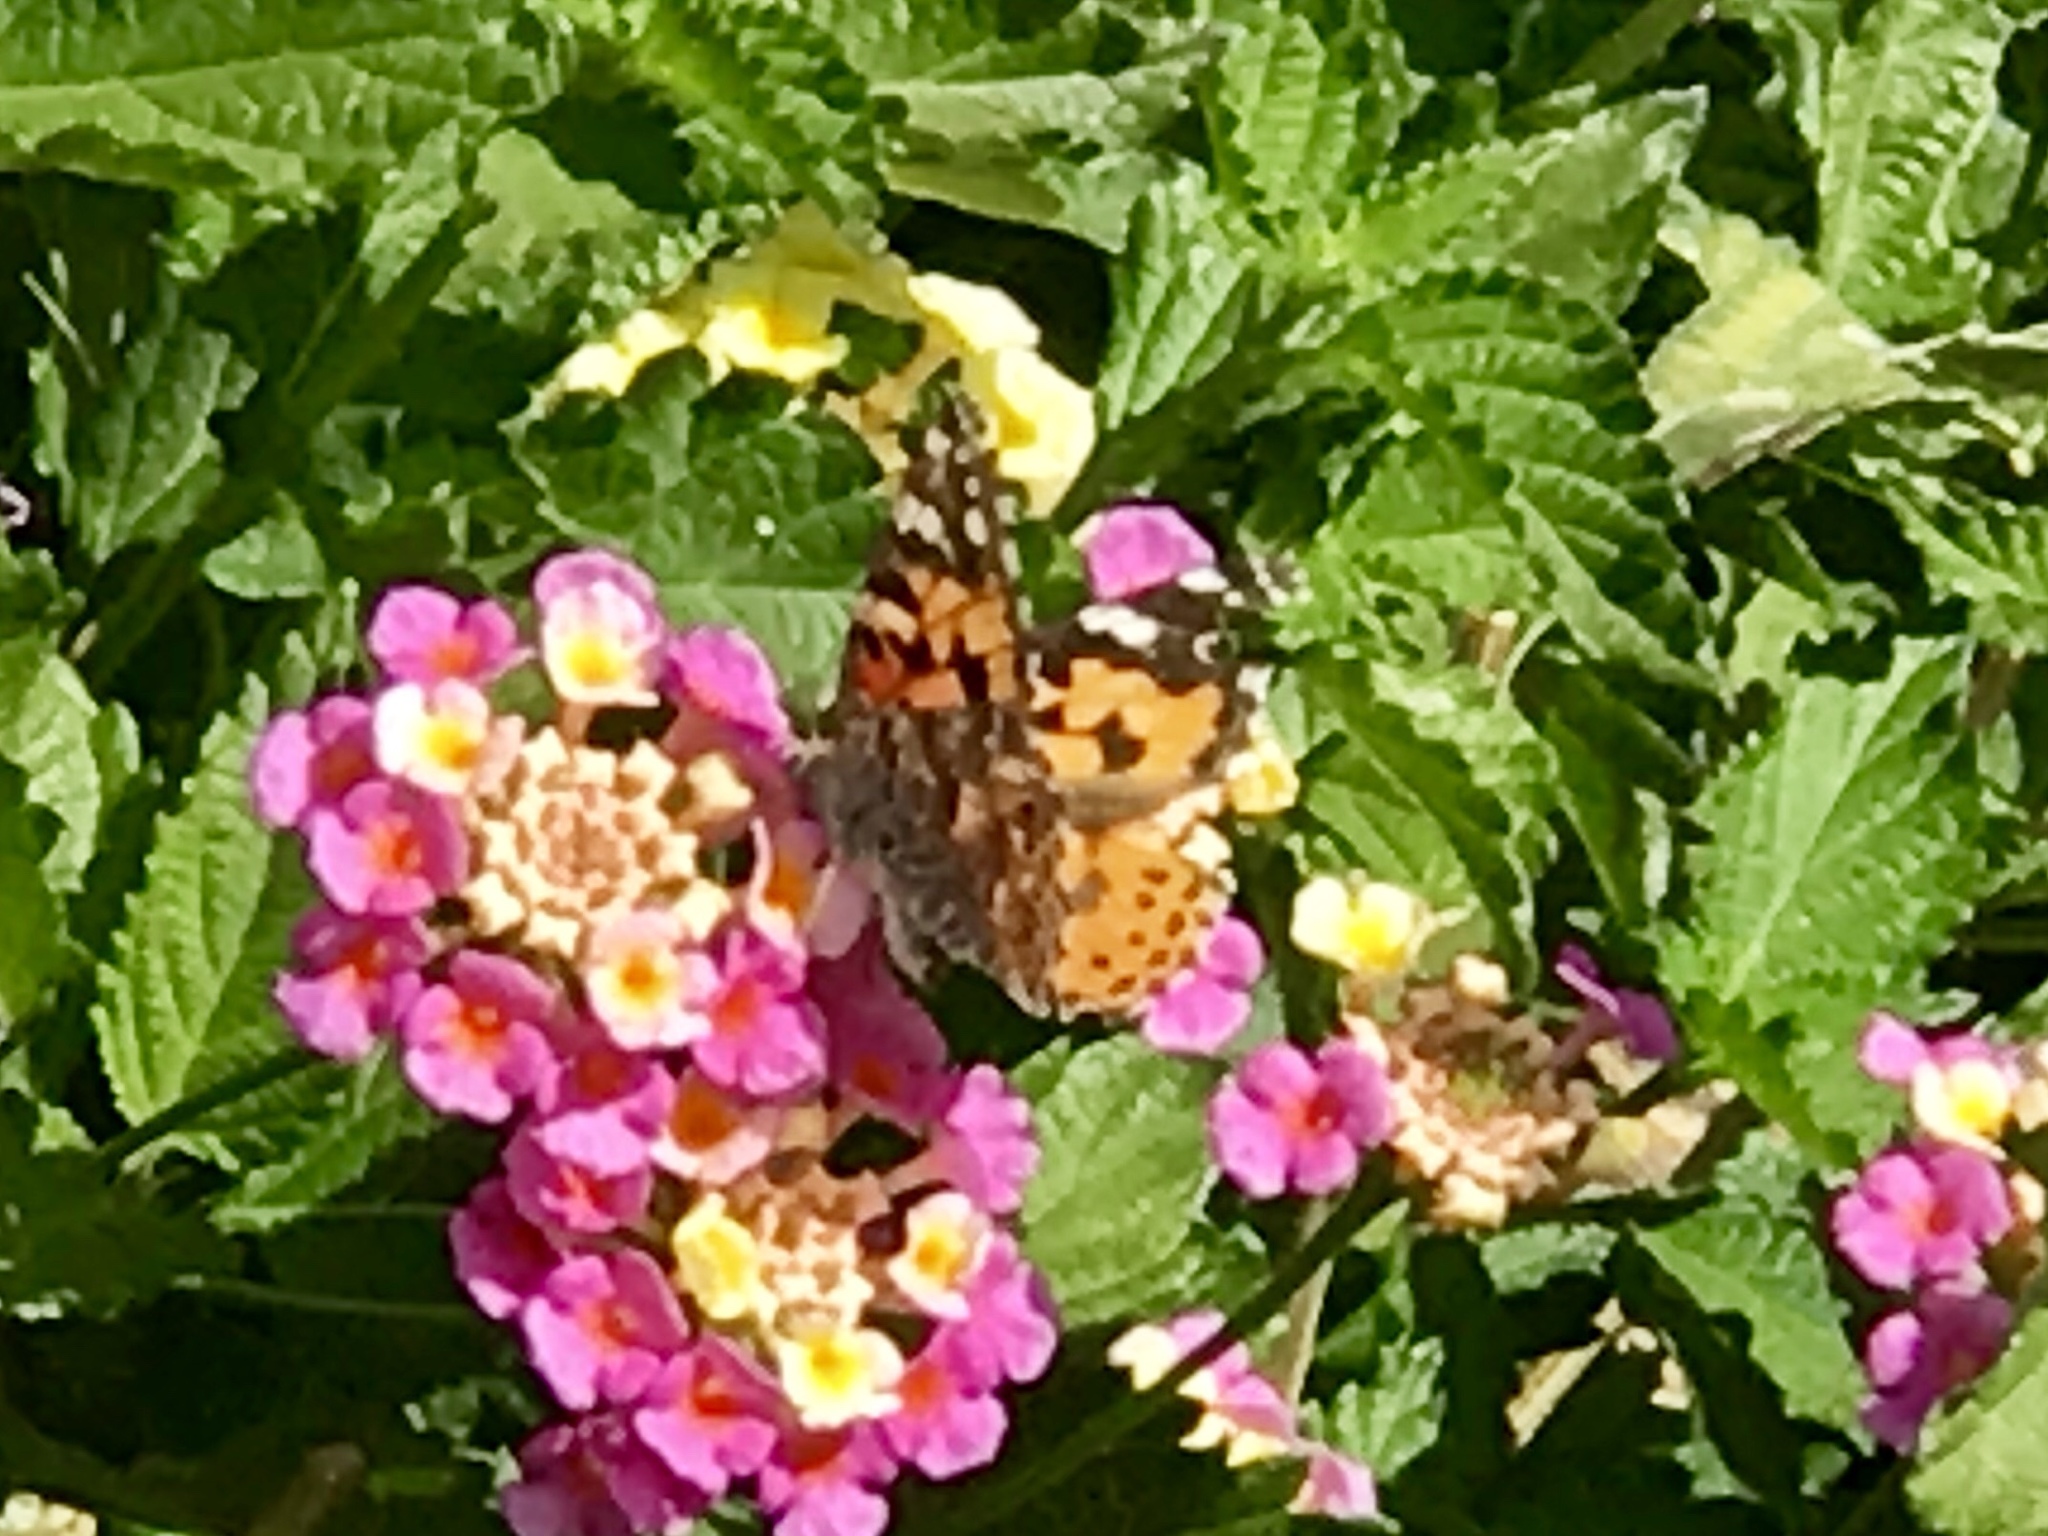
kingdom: Animalia
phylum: Arthropoda
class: Insecta
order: Lepidoptera
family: Nymphalidae
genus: Vanessa
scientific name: Vanessa cardui
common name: Painted lady
